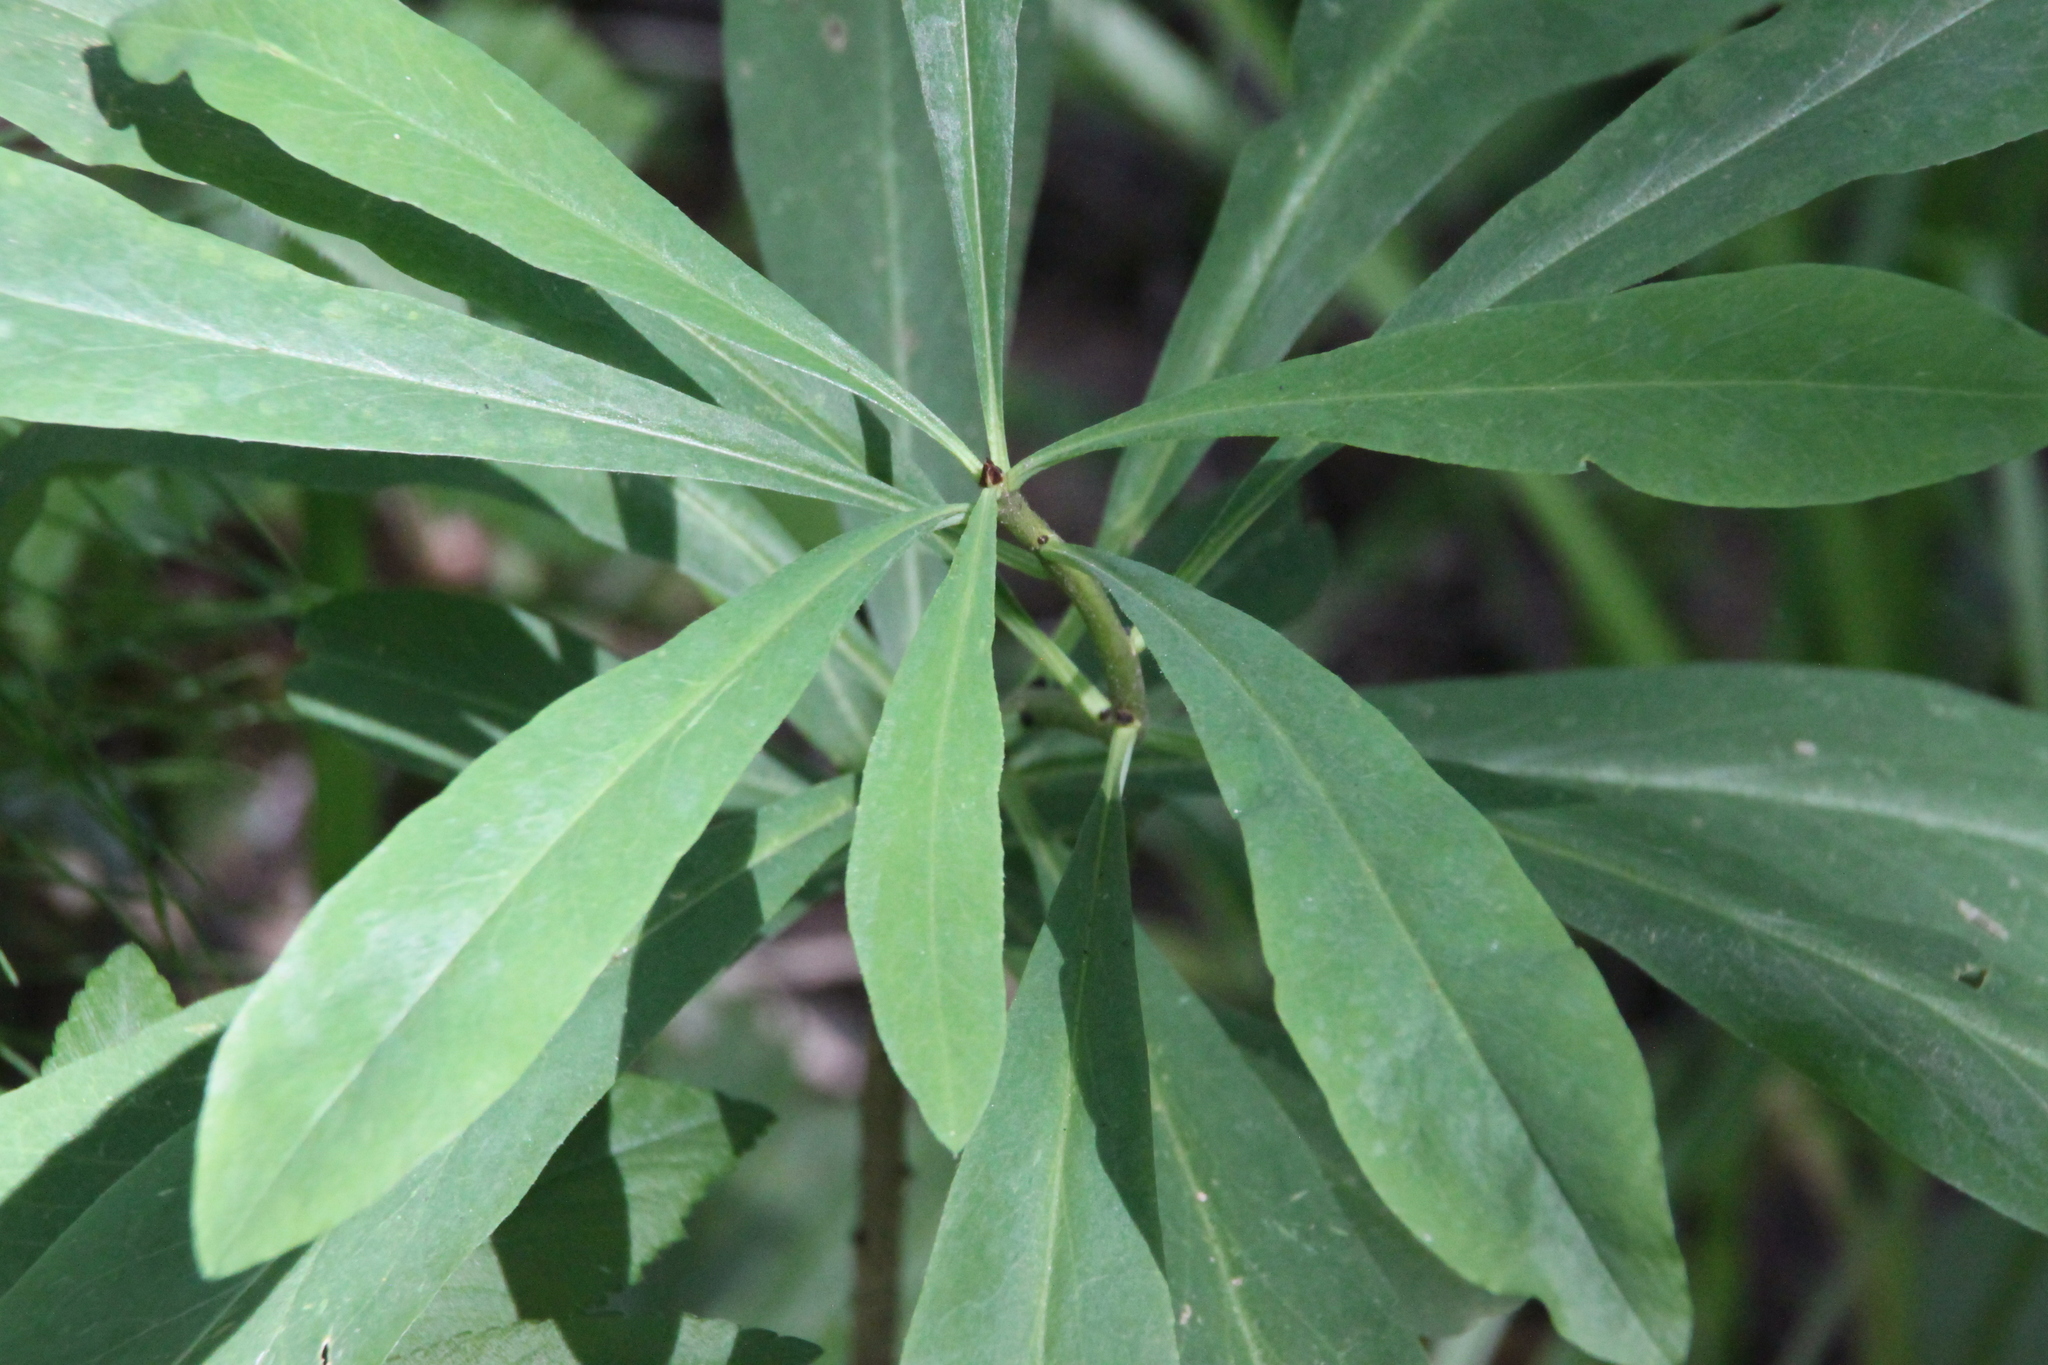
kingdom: Plantae
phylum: Tracheophyta
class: Magnoliopsida
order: Malvales
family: Thymelaeaceae
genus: Daphne
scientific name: Daphne mezereum
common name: Mezereon
